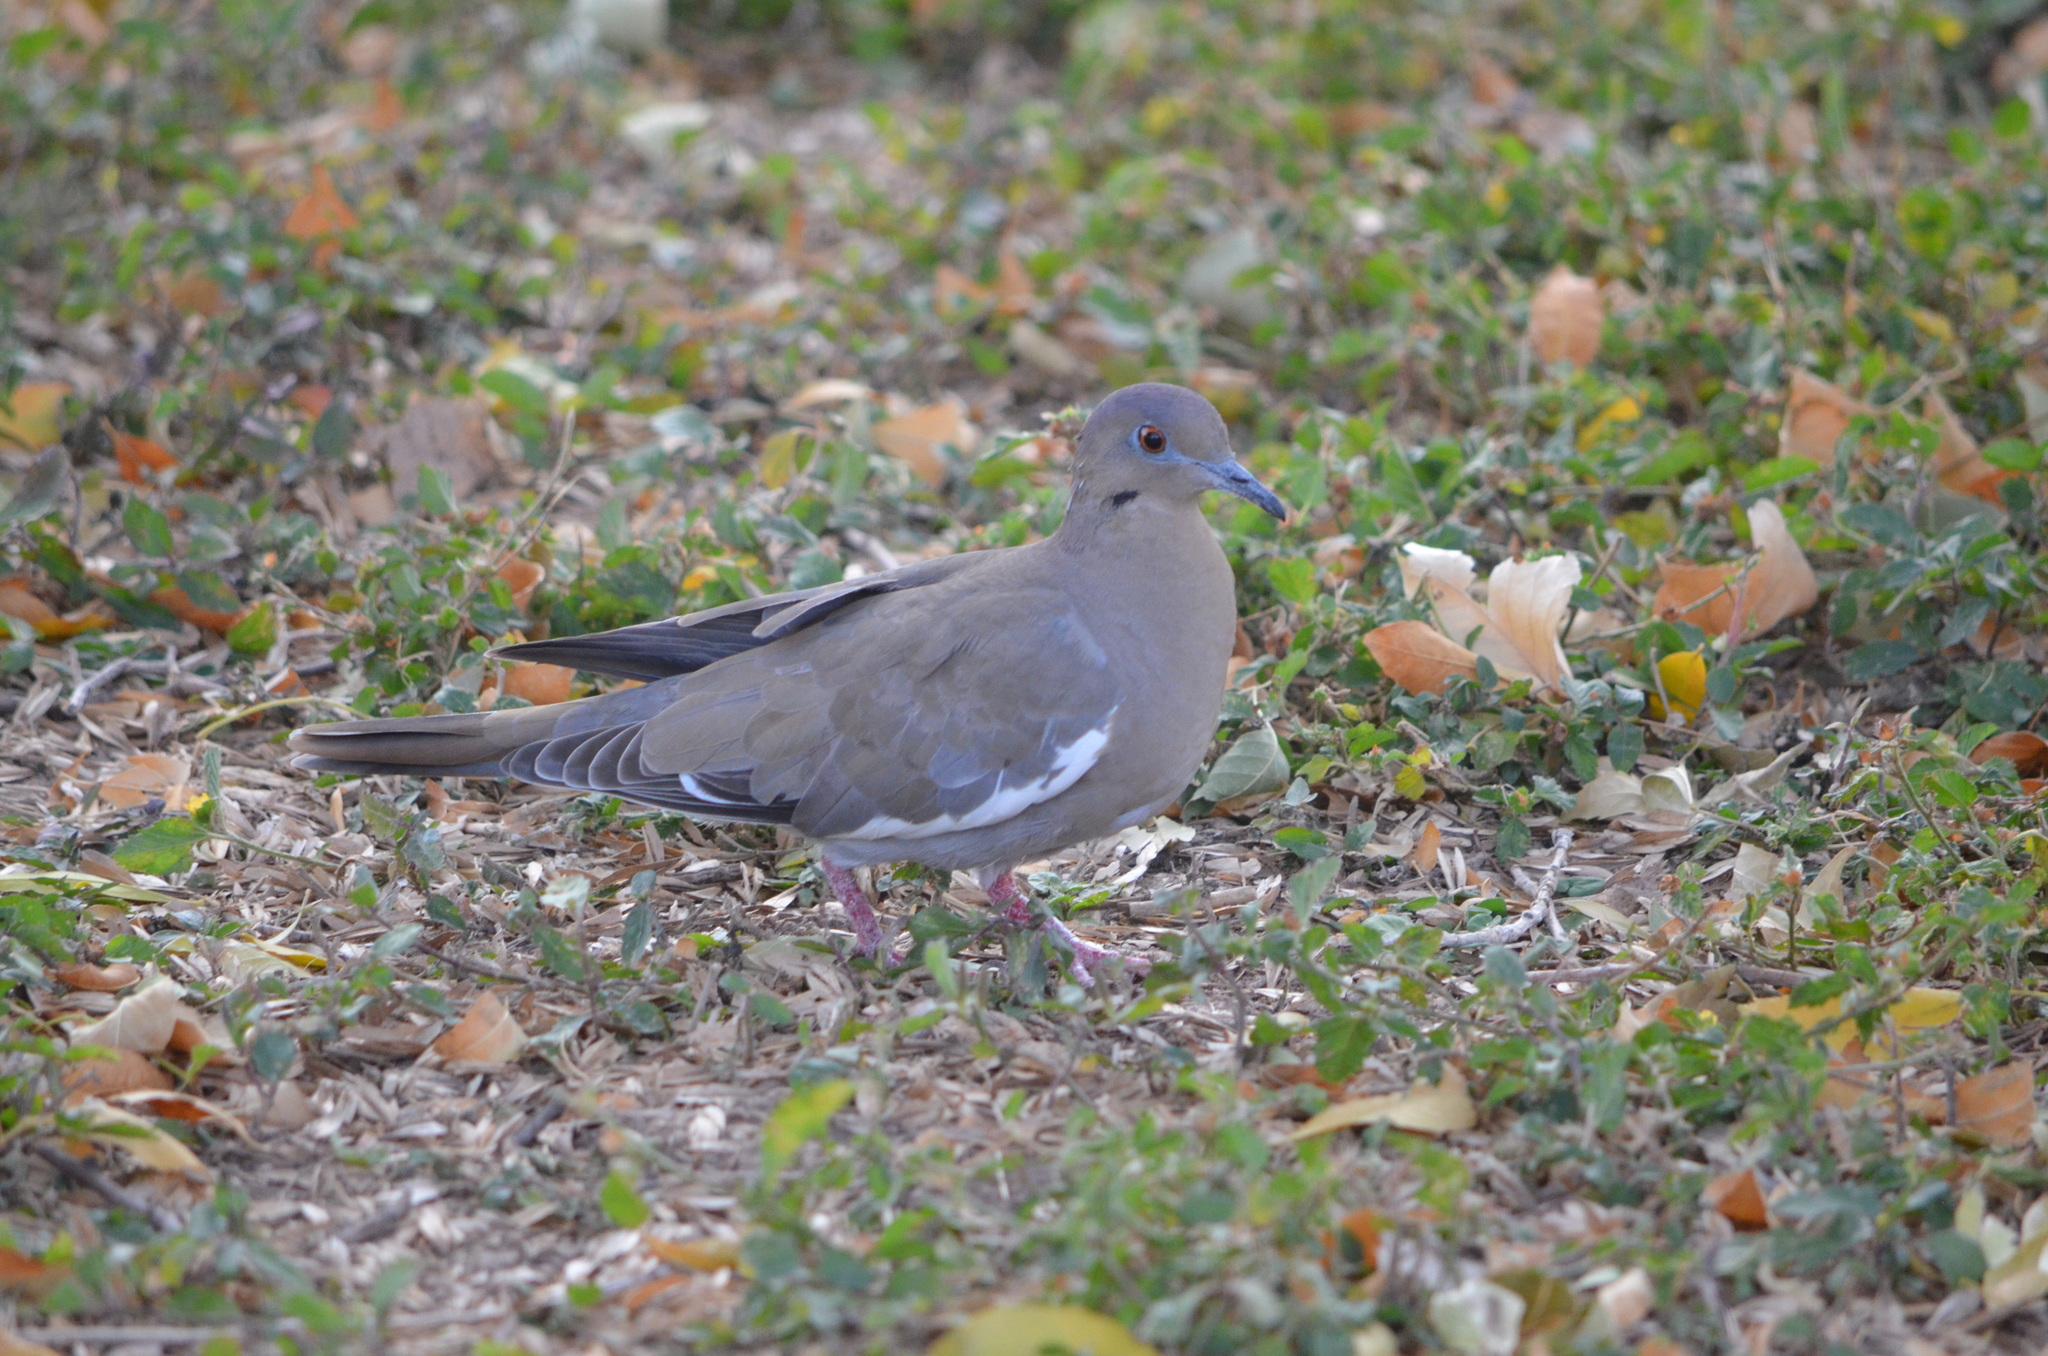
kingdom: Animalia
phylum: Chordata
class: Aves
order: Columbiformes
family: Columbidae
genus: Zenaida
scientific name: Zenaida asiatica
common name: White-winged dove
